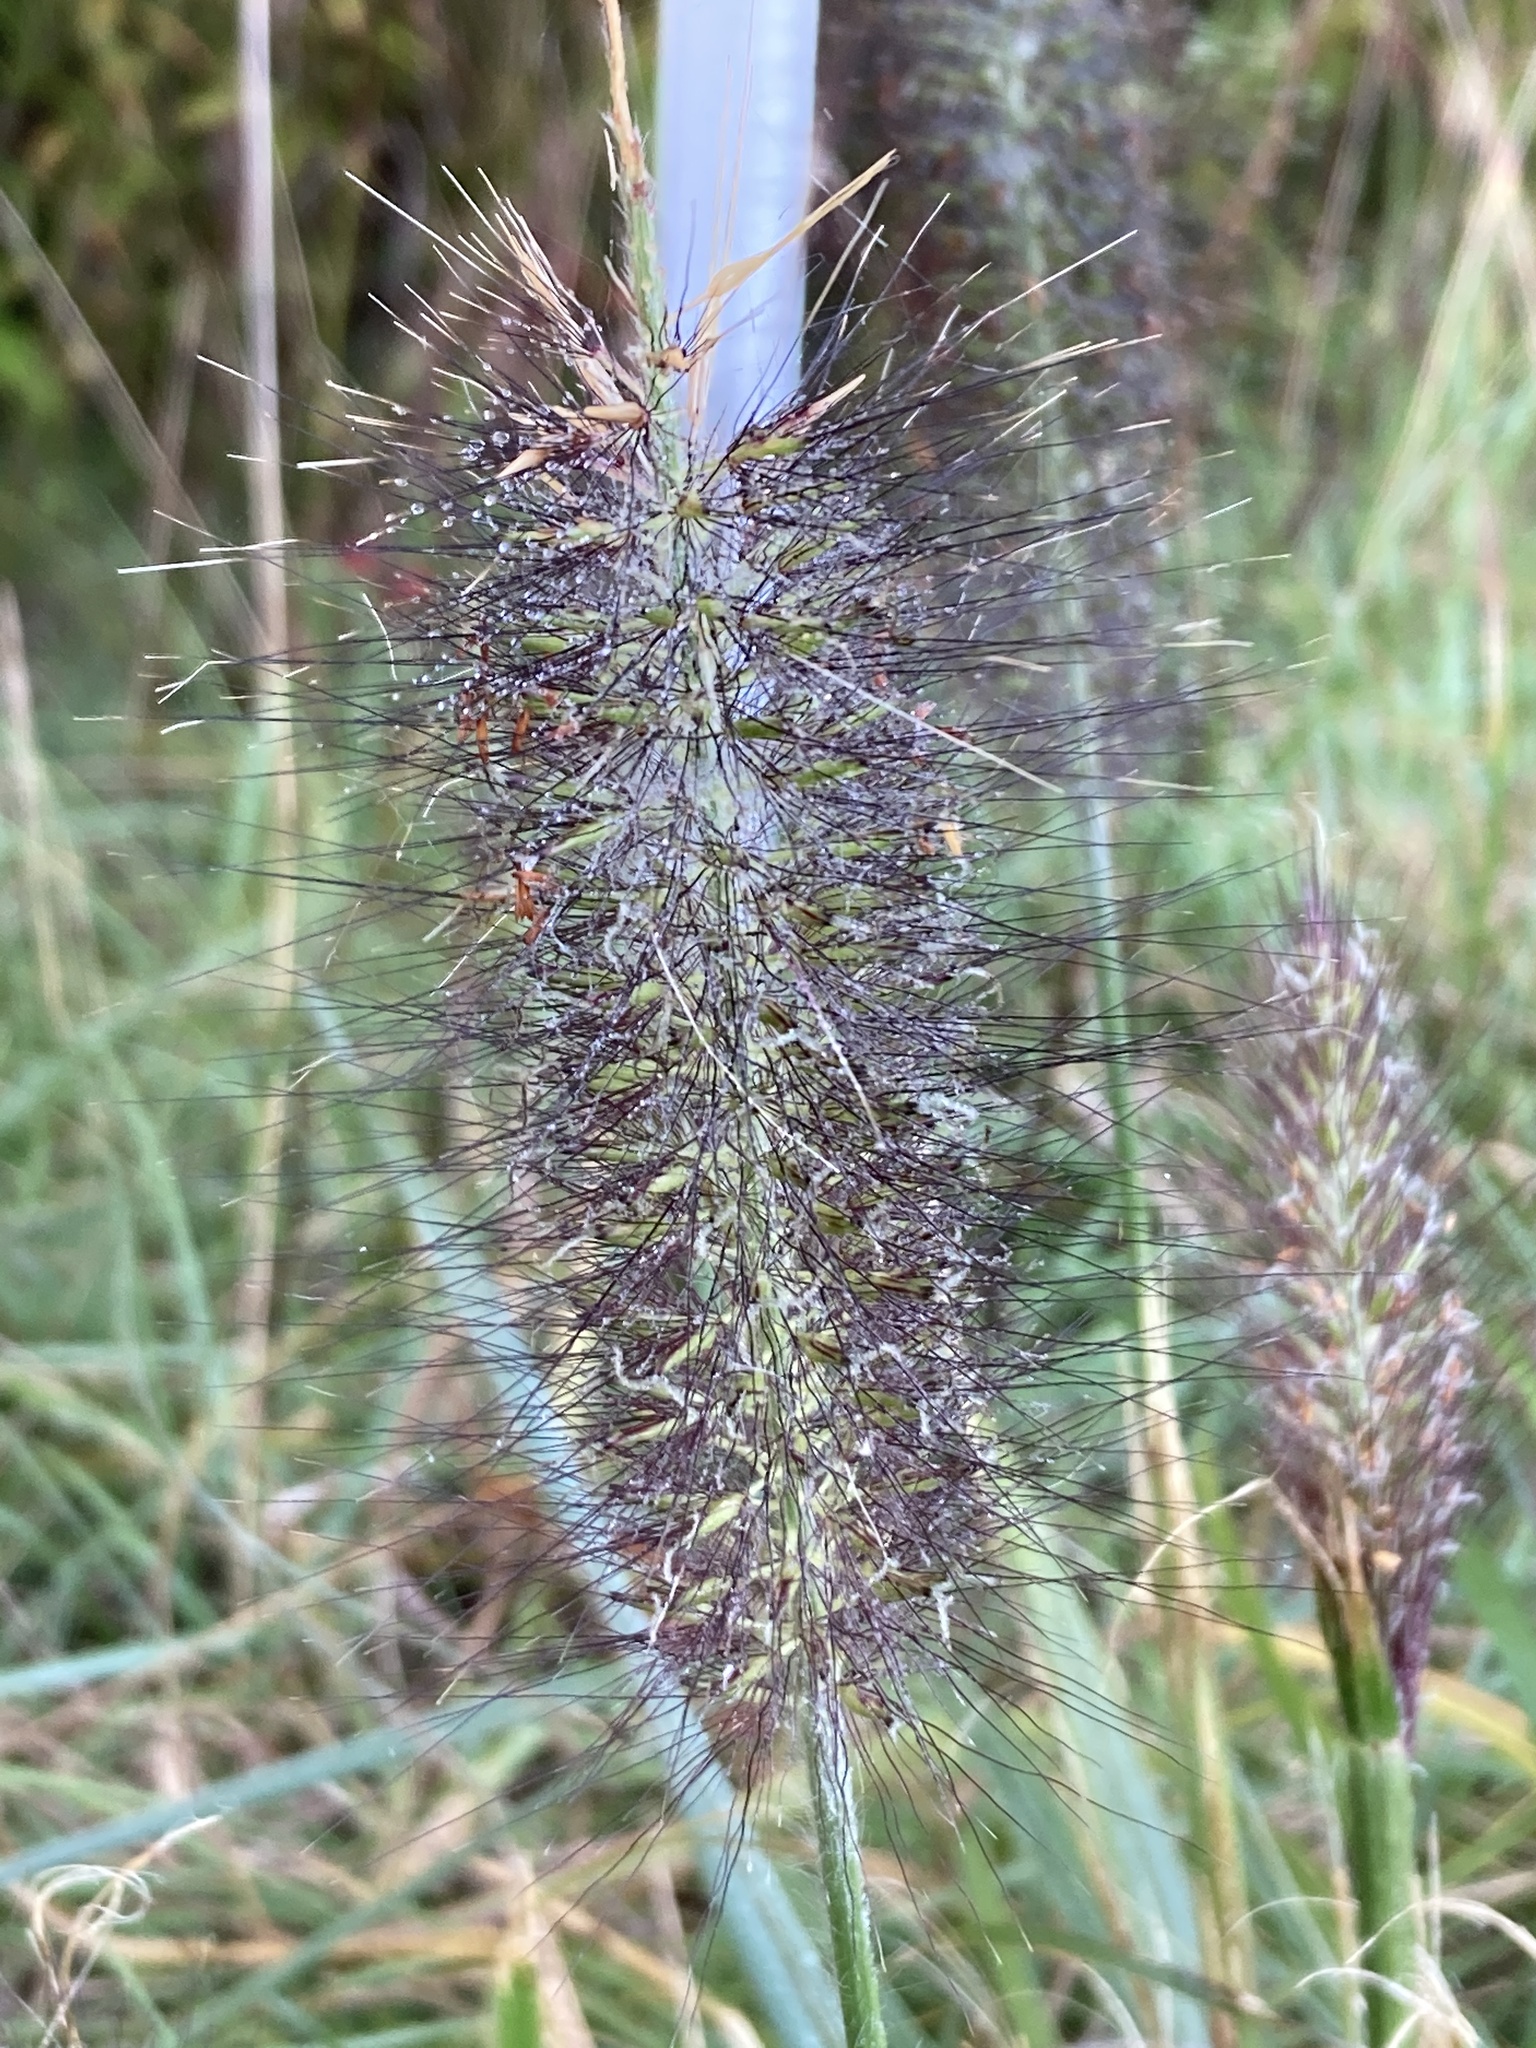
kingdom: Plantae
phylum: Tracheophyta
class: Liliopsida
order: Poales
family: Poaceae
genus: Cenchrus
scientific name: Cenchrus alopecuroides
